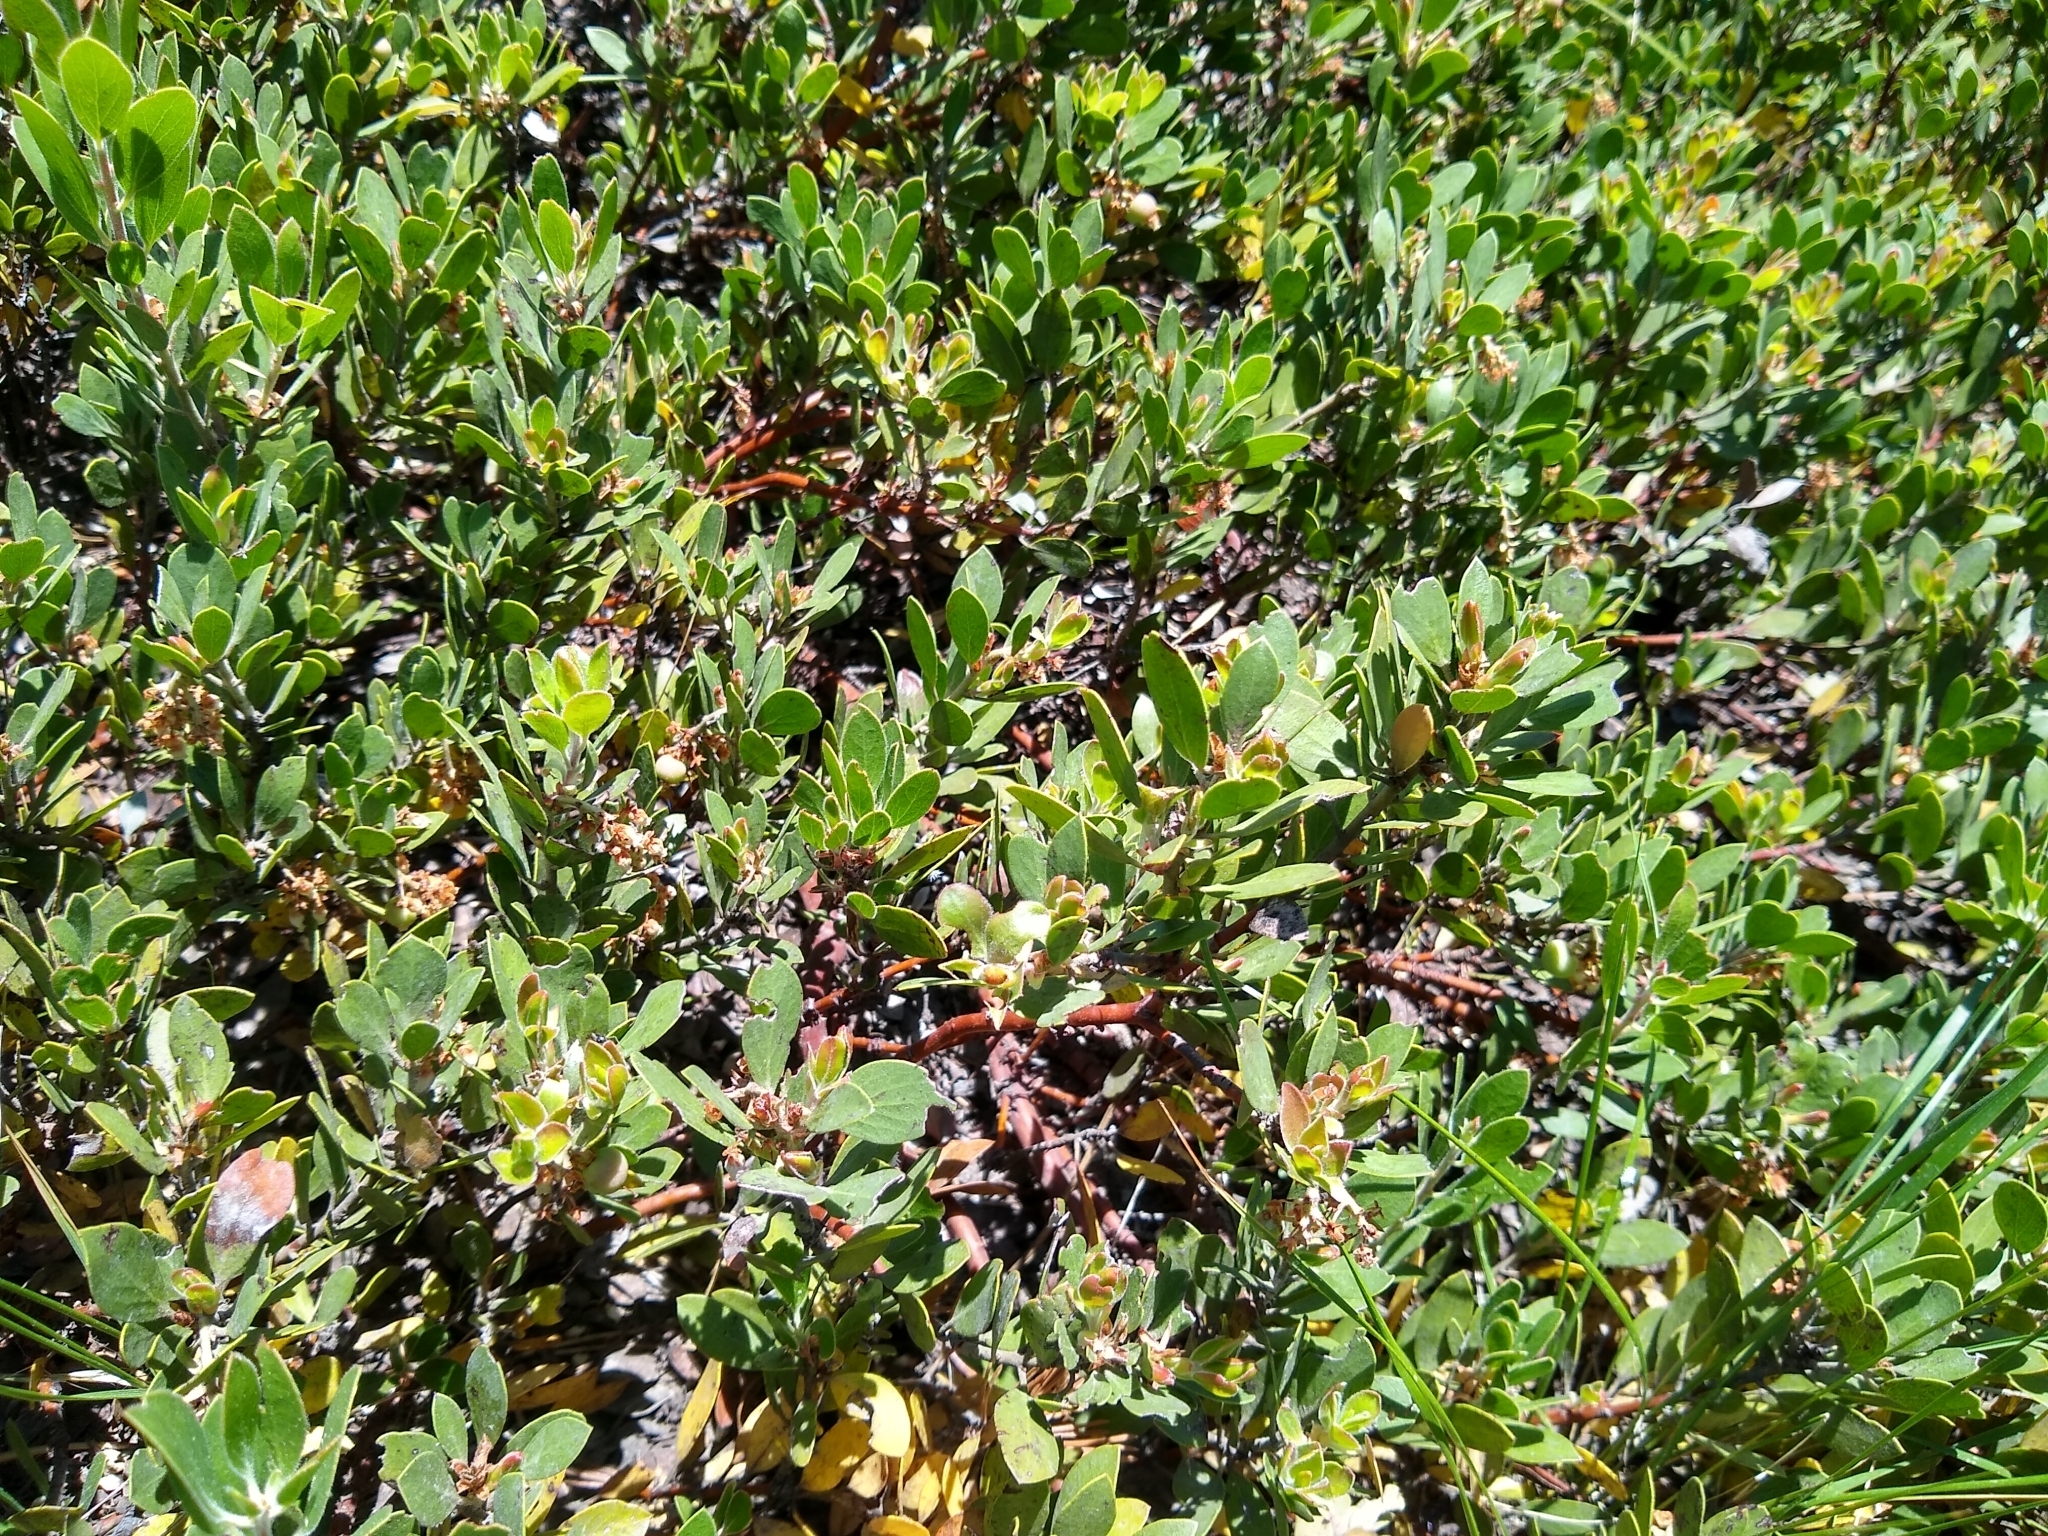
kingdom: Plantae
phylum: Tracheophyta
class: Magnoliopsida
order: Ericales
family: Ericaceae
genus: Arctostaphylos
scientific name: Arctostaphylos nevadensis
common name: Pinemat manzanita
